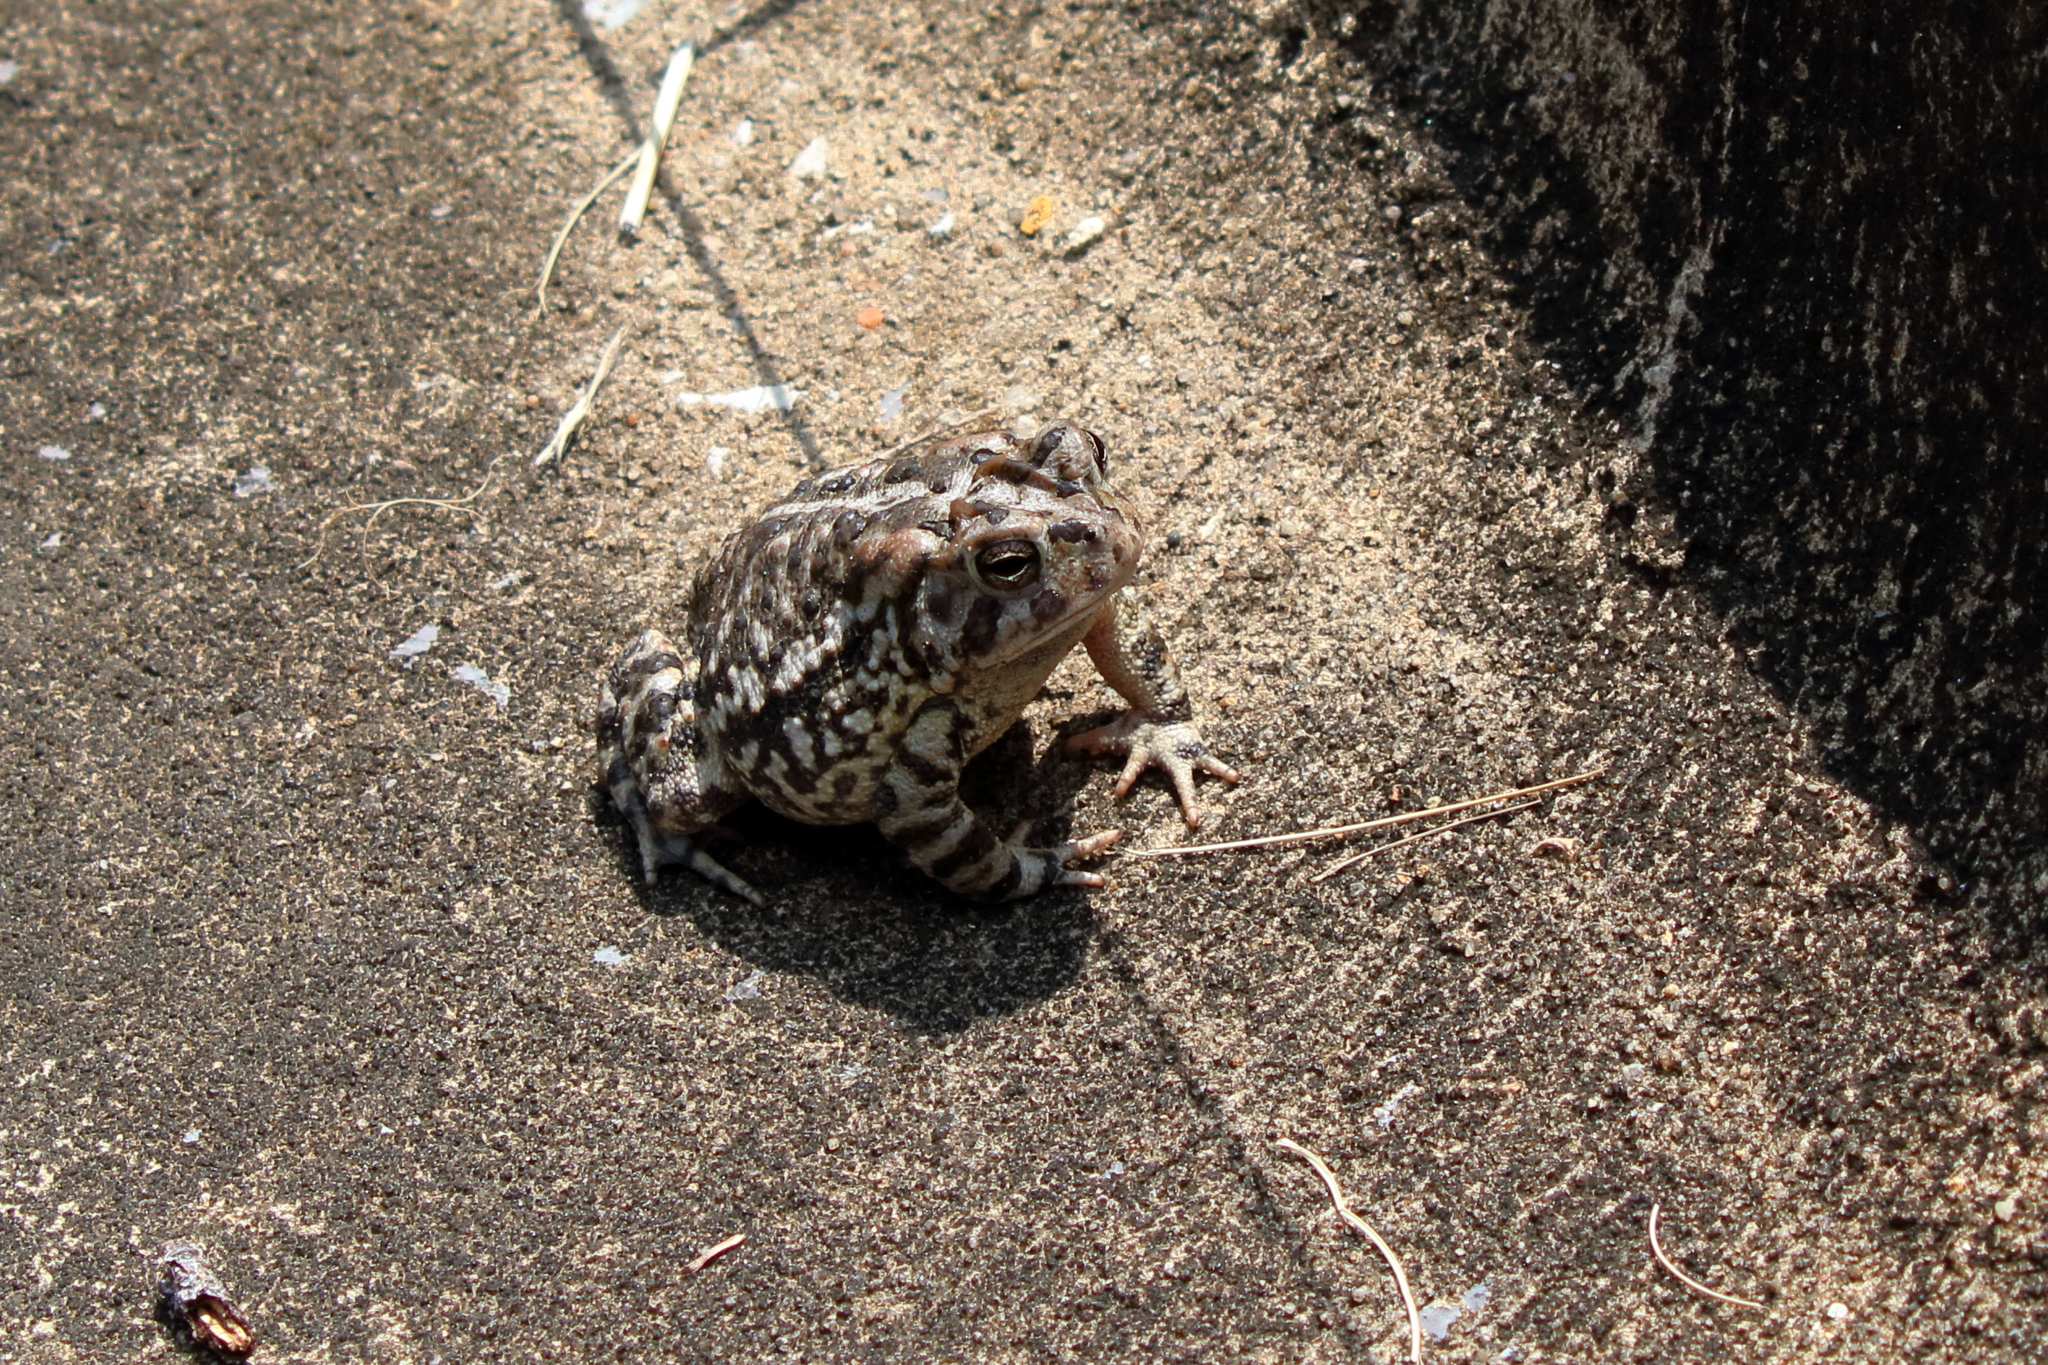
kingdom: Animalia
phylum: Chordata
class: Amphibia
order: Anura
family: Bufonidae
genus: Anaxyrus
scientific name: Anaxyrus terrestris
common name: Southern toad
